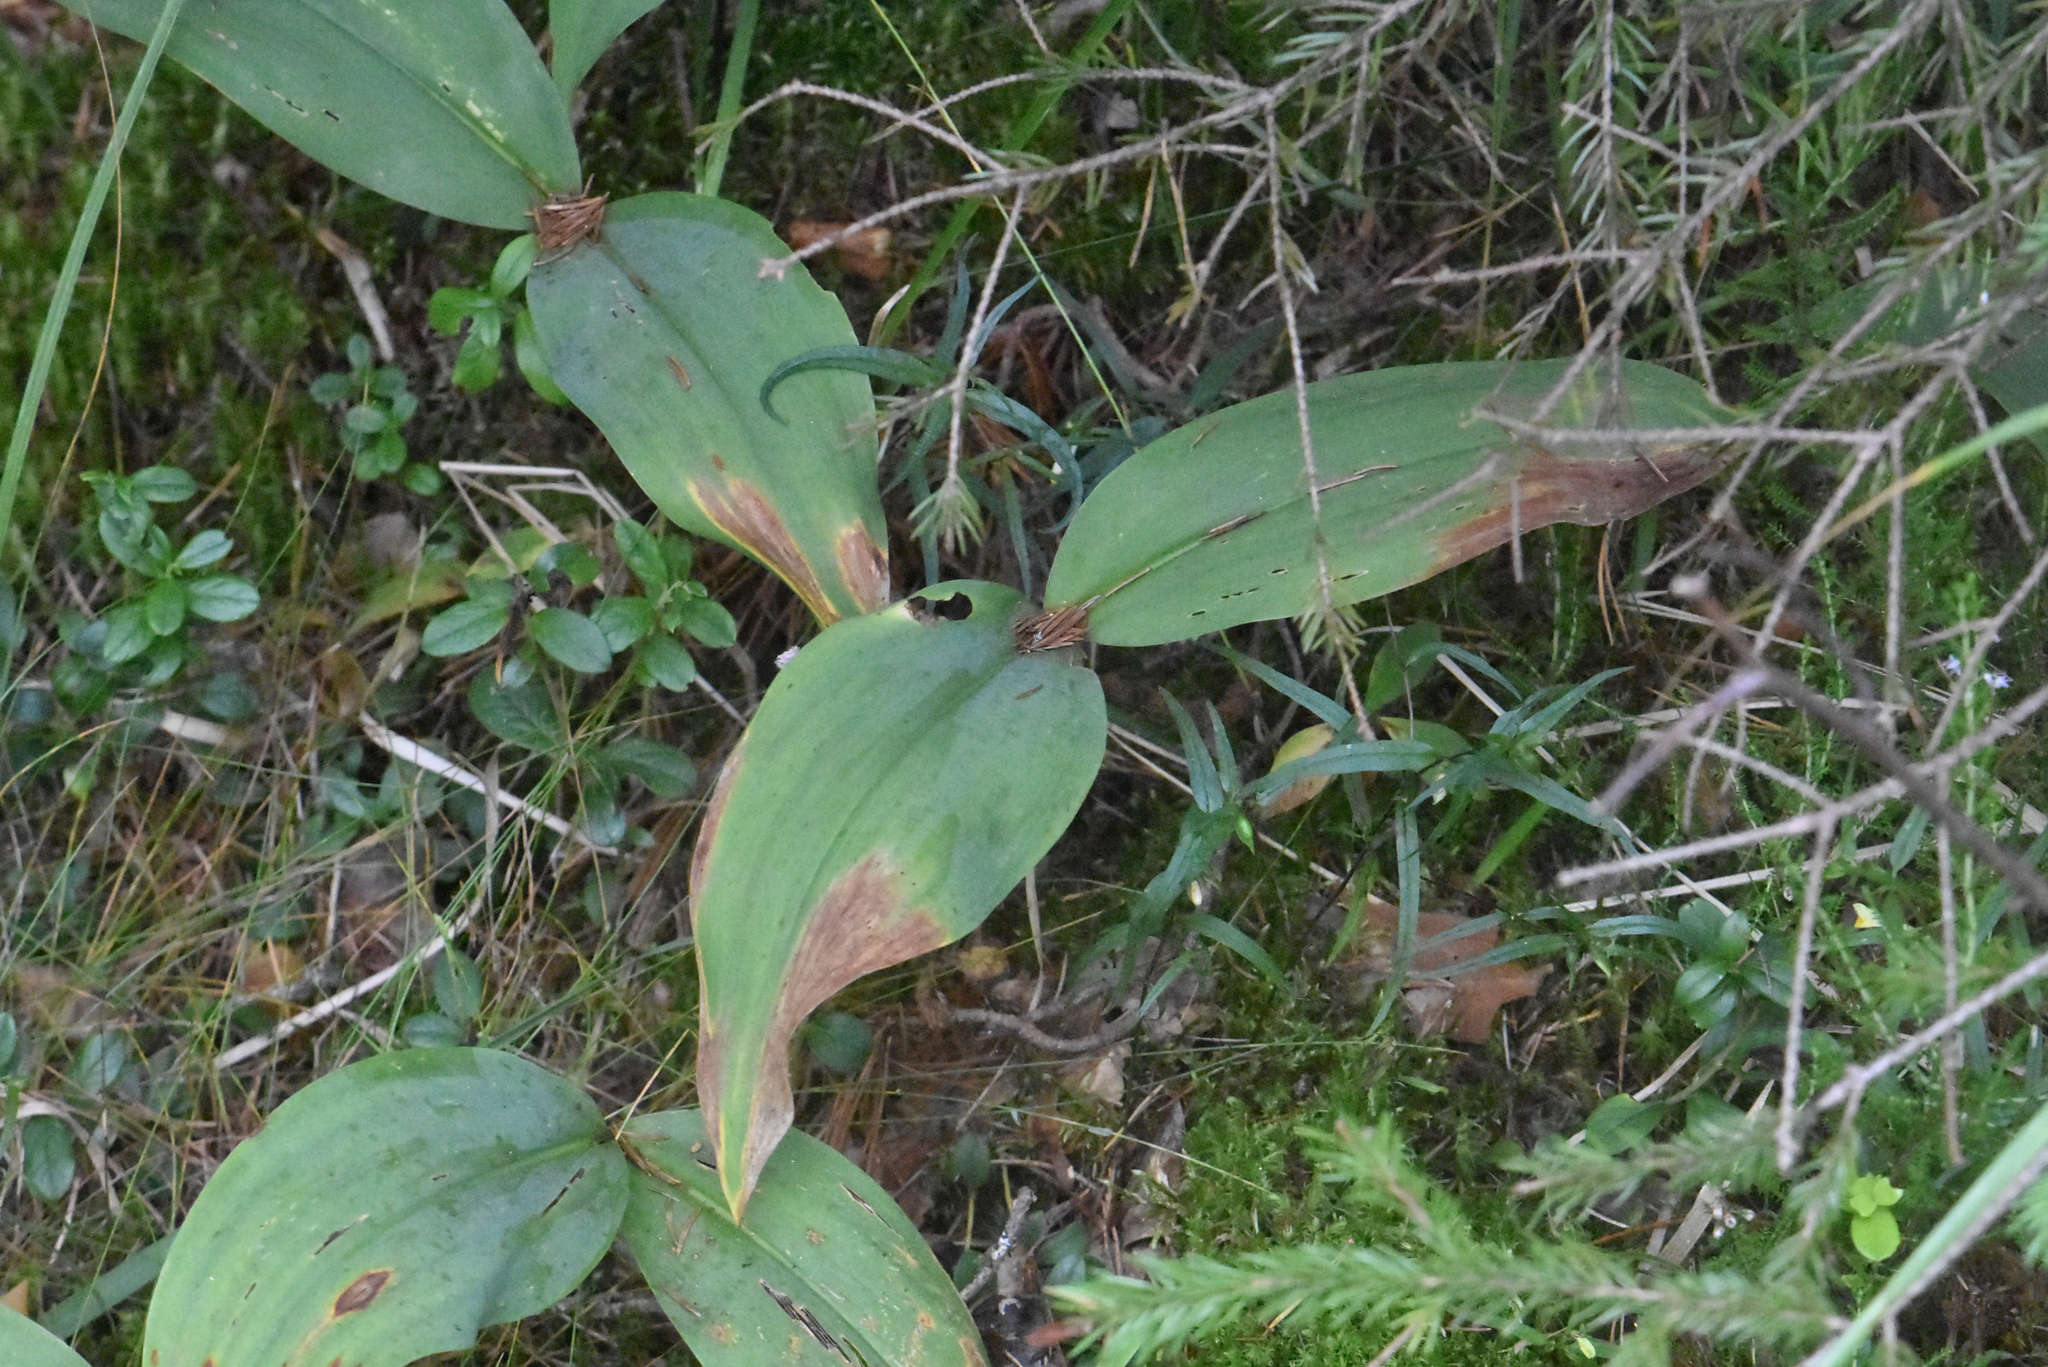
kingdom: Plantae
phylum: Tracheophyta
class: Liliopsida
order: Asparagales
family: Asparagaceae
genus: Convallaria
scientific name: Convallaria majalis
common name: Lily-of-the-valley
